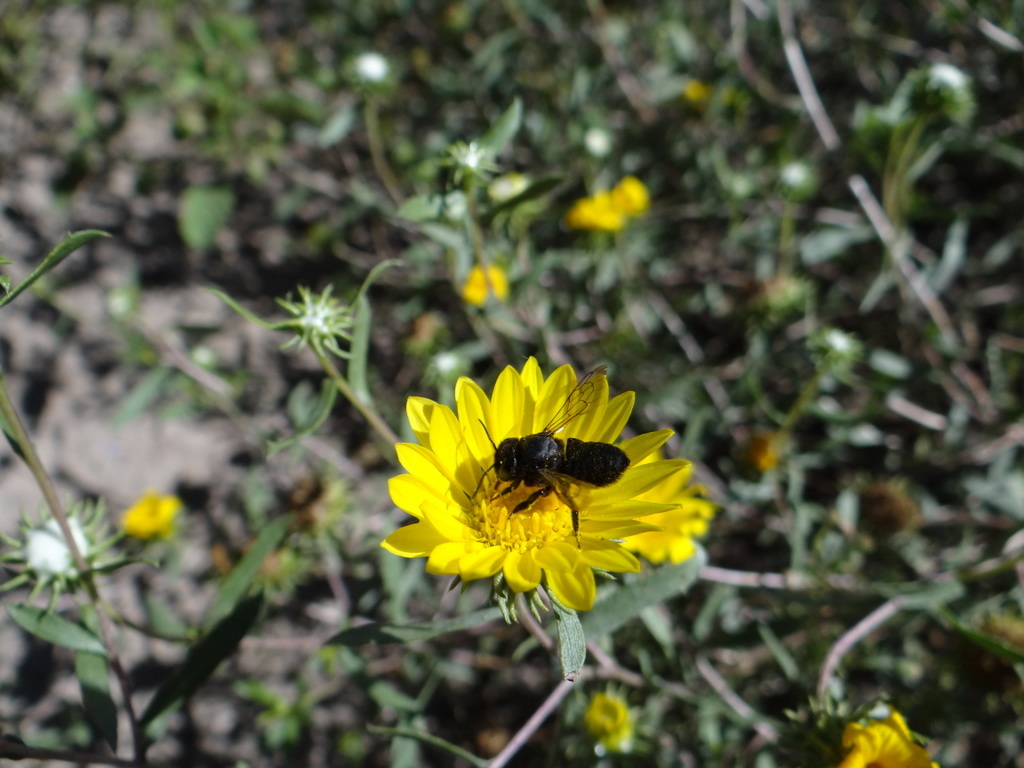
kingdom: Animalia
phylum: Arthropoda
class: Insecta
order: Hymenoptera
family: Megachilidae
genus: Megachile
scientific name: Megachile
